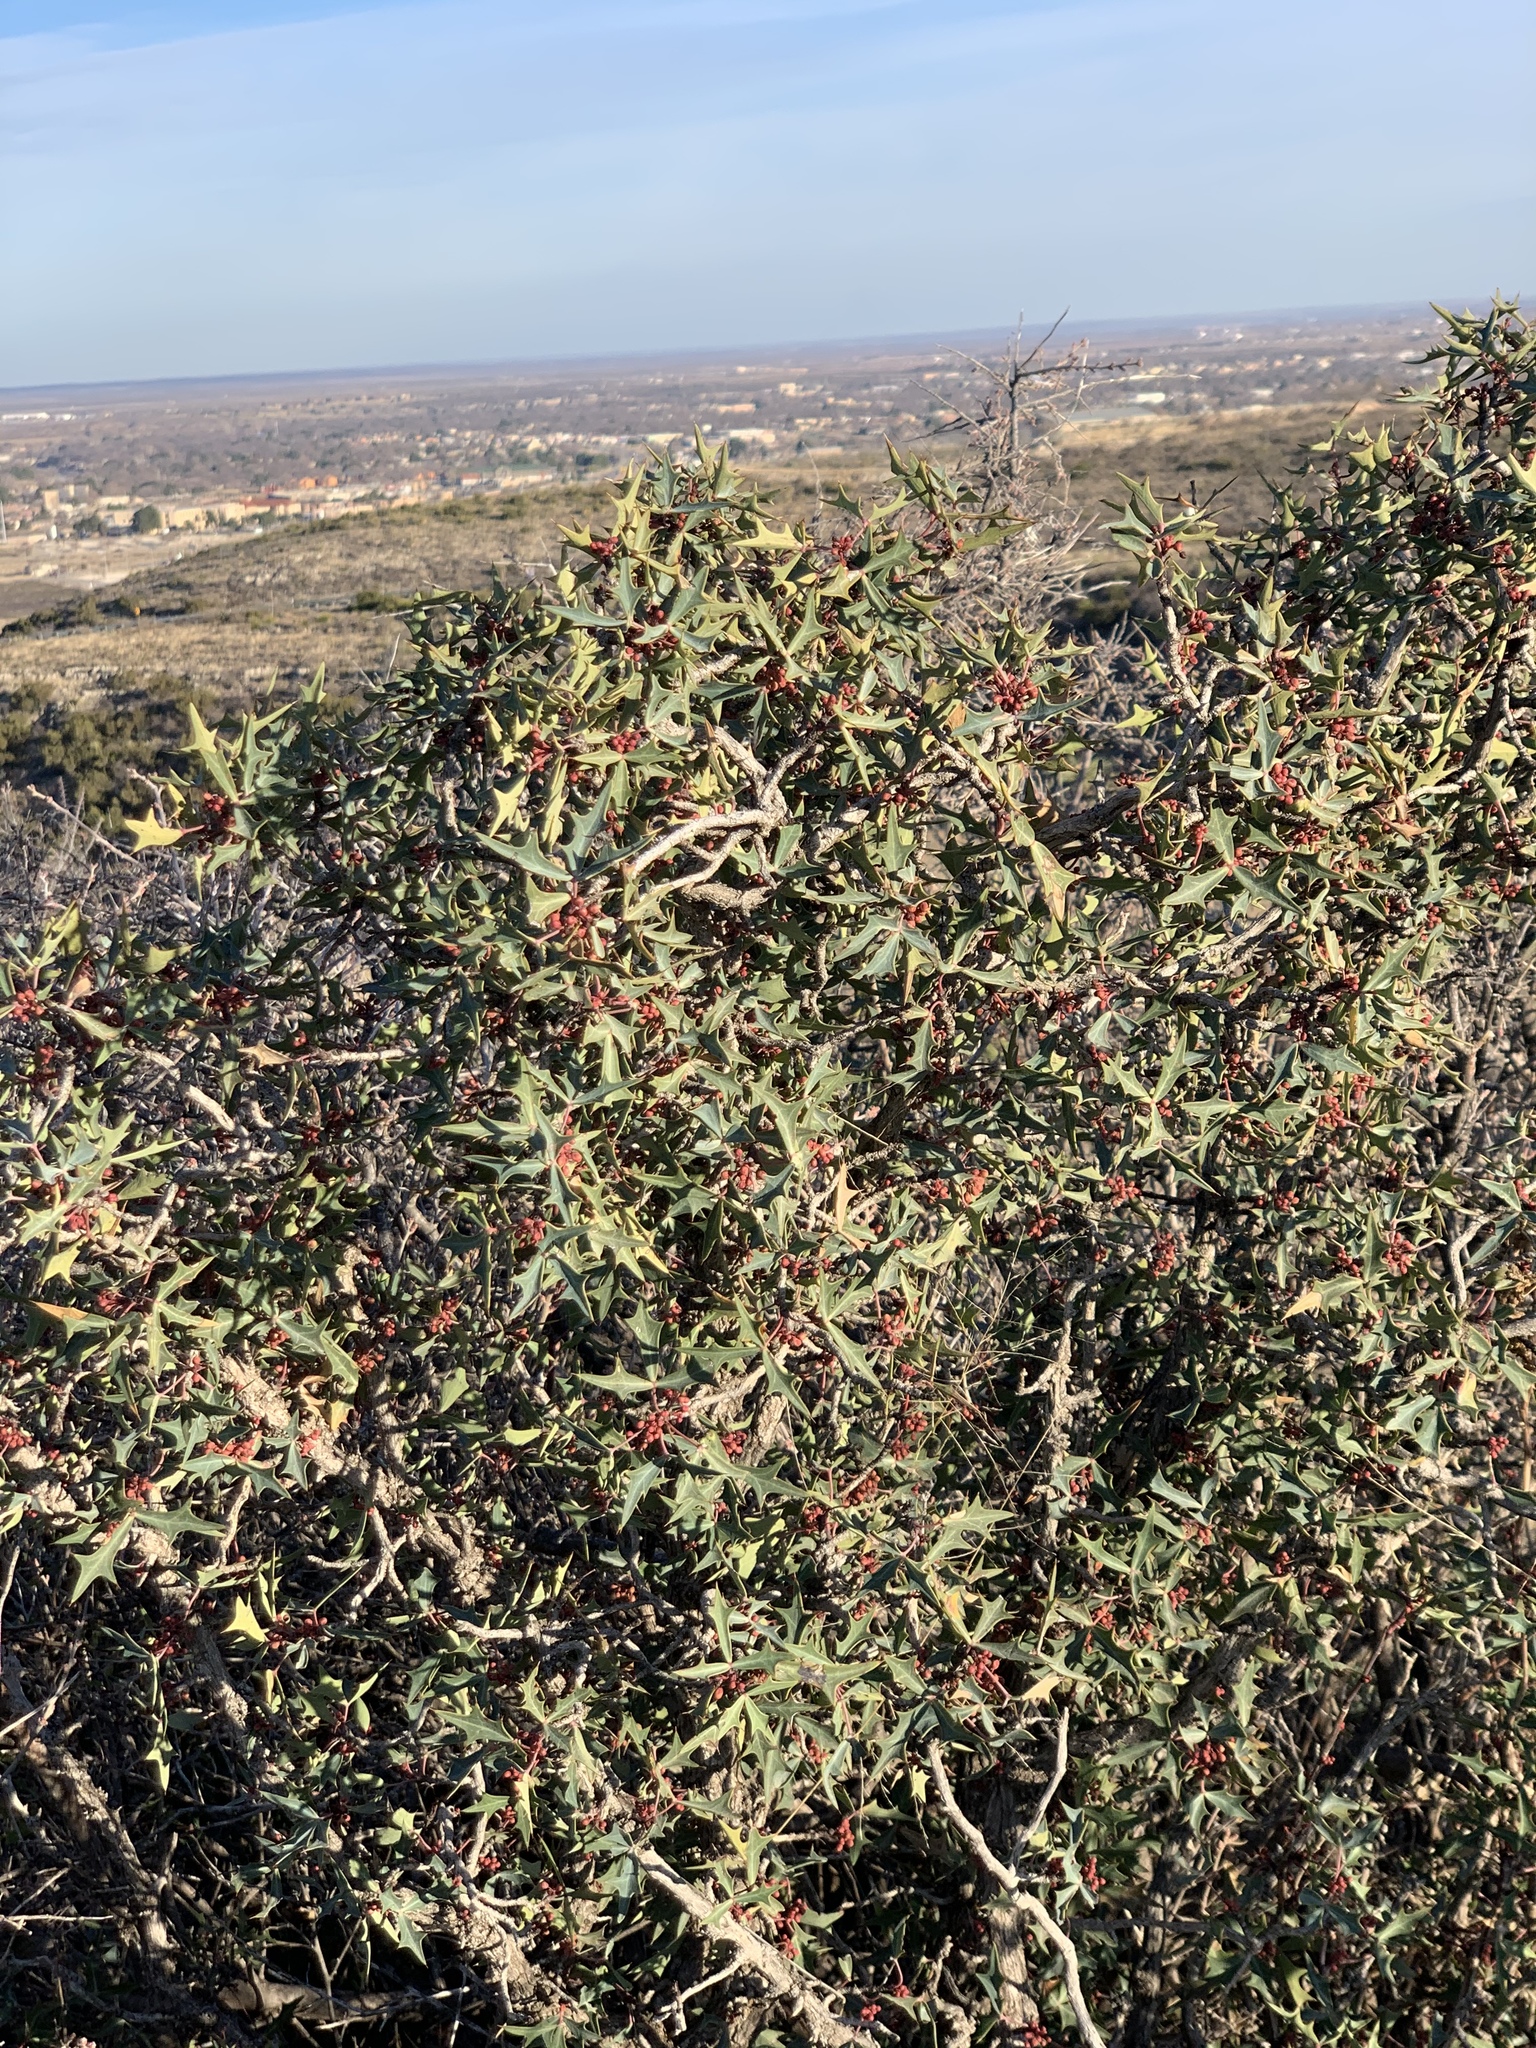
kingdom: Plantae
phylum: Tracheophyta
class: Magnoliopsida
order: Ranunculales
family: Berberidaceae
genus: Alloberberis
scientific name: Alloberberis trifoliolata
